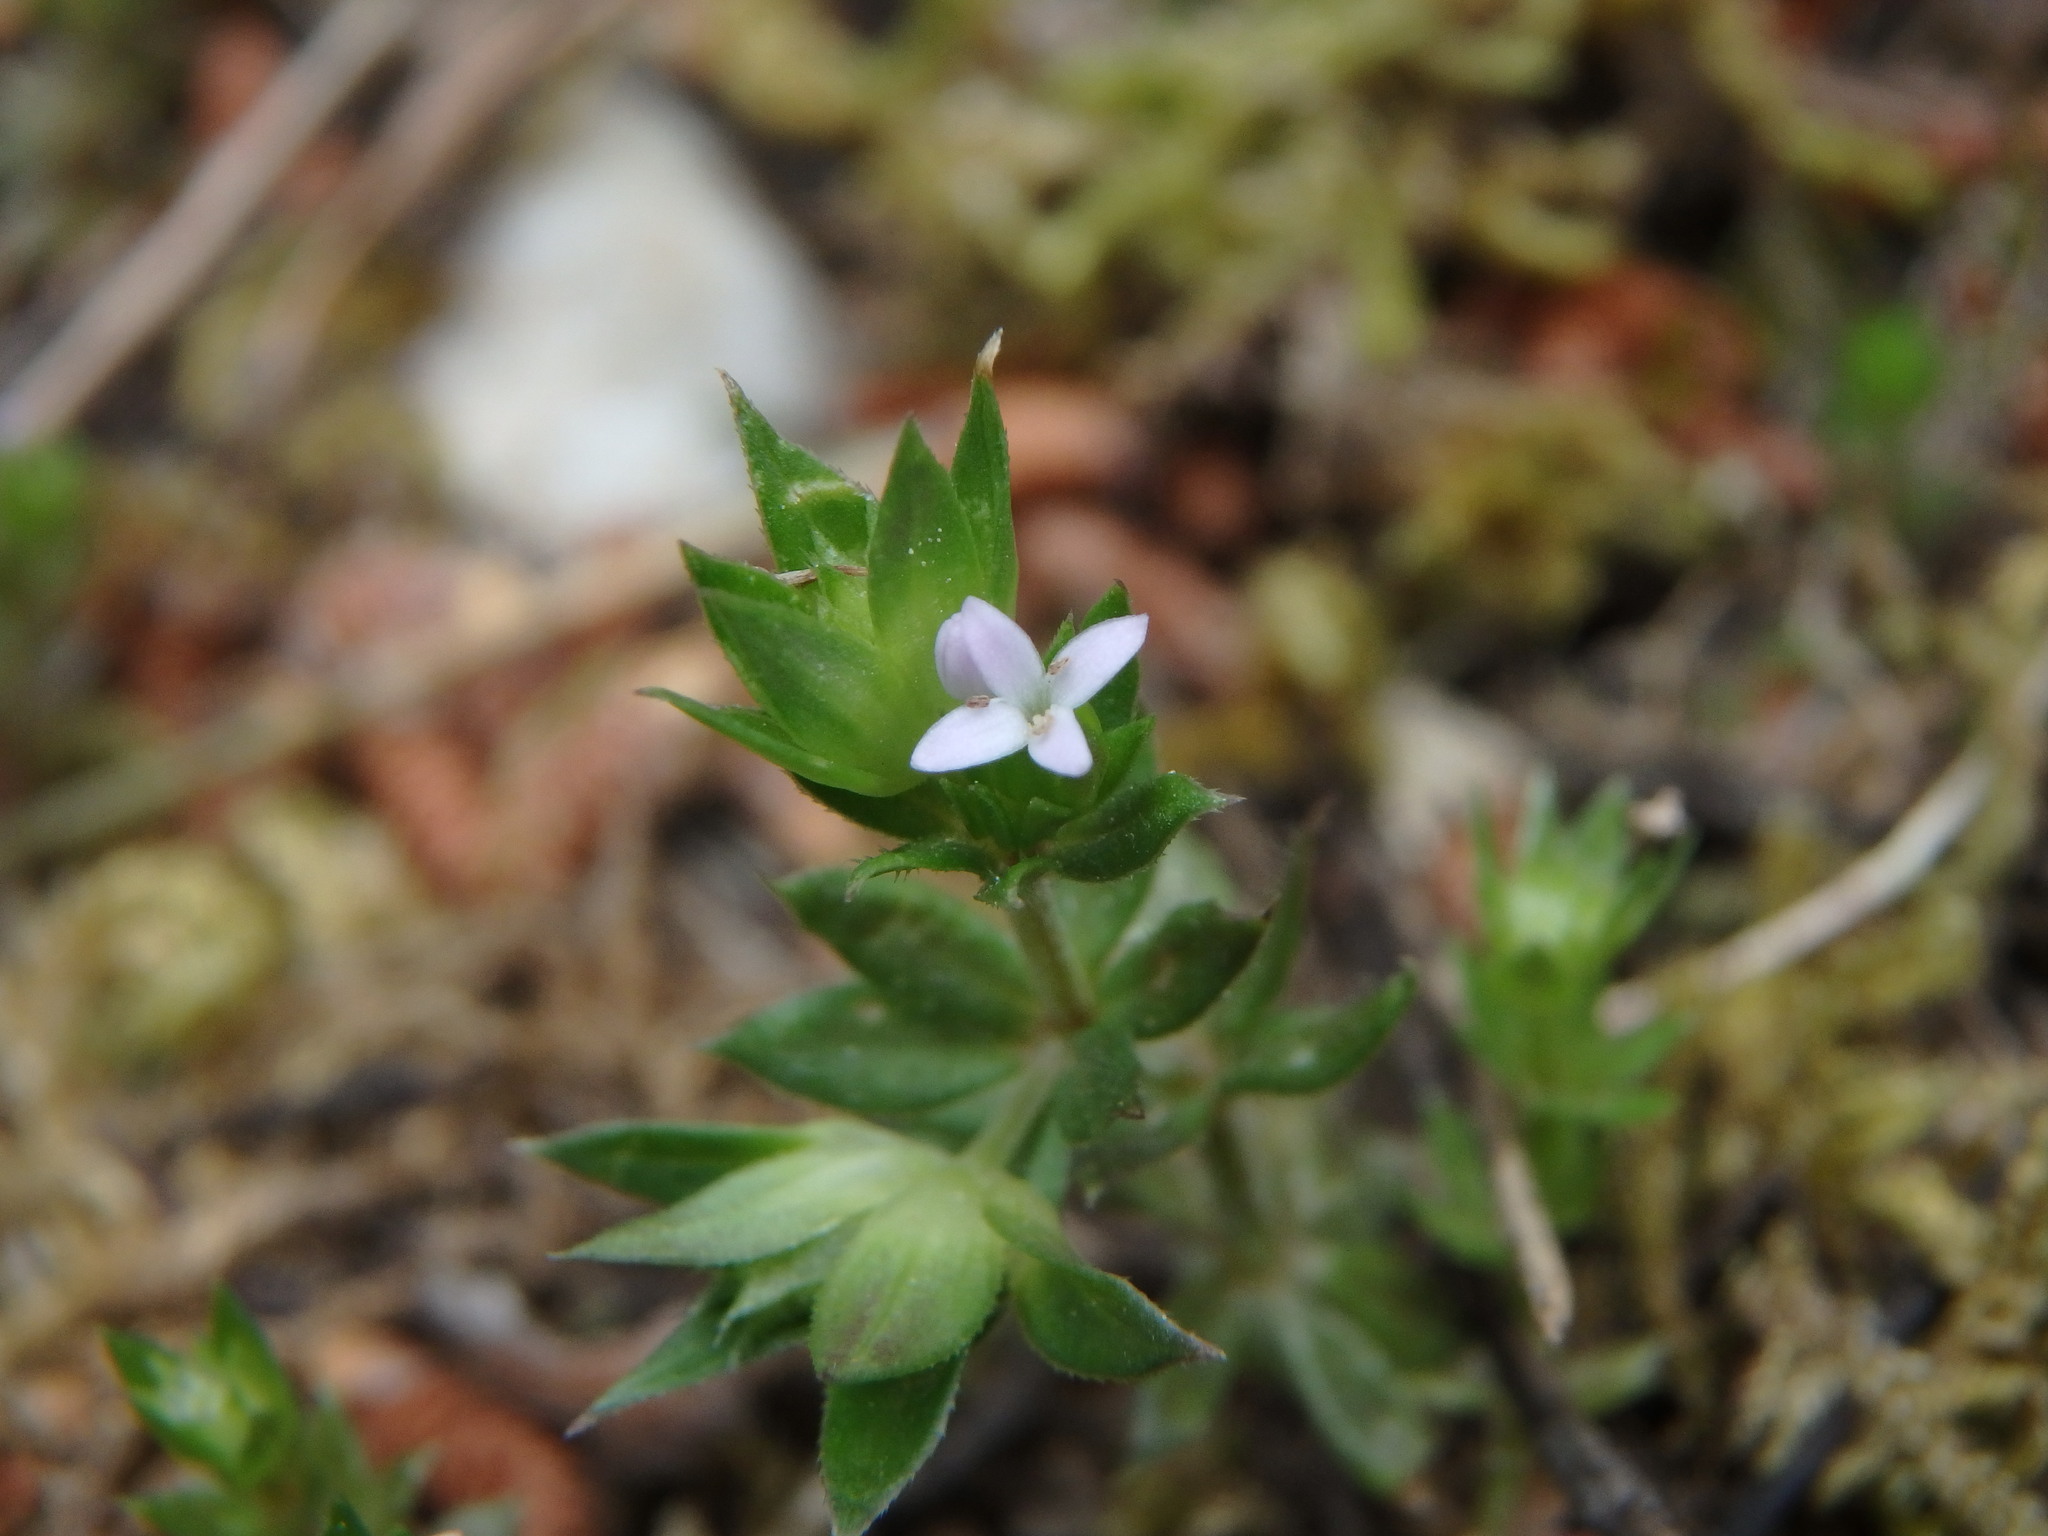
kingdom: Plantae
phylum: Tracheophyta
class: Magnoliopsida
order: Gentianales
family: Rubiaceae
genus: Sherardia
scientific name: Sherardia arvensis
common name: Field madder
